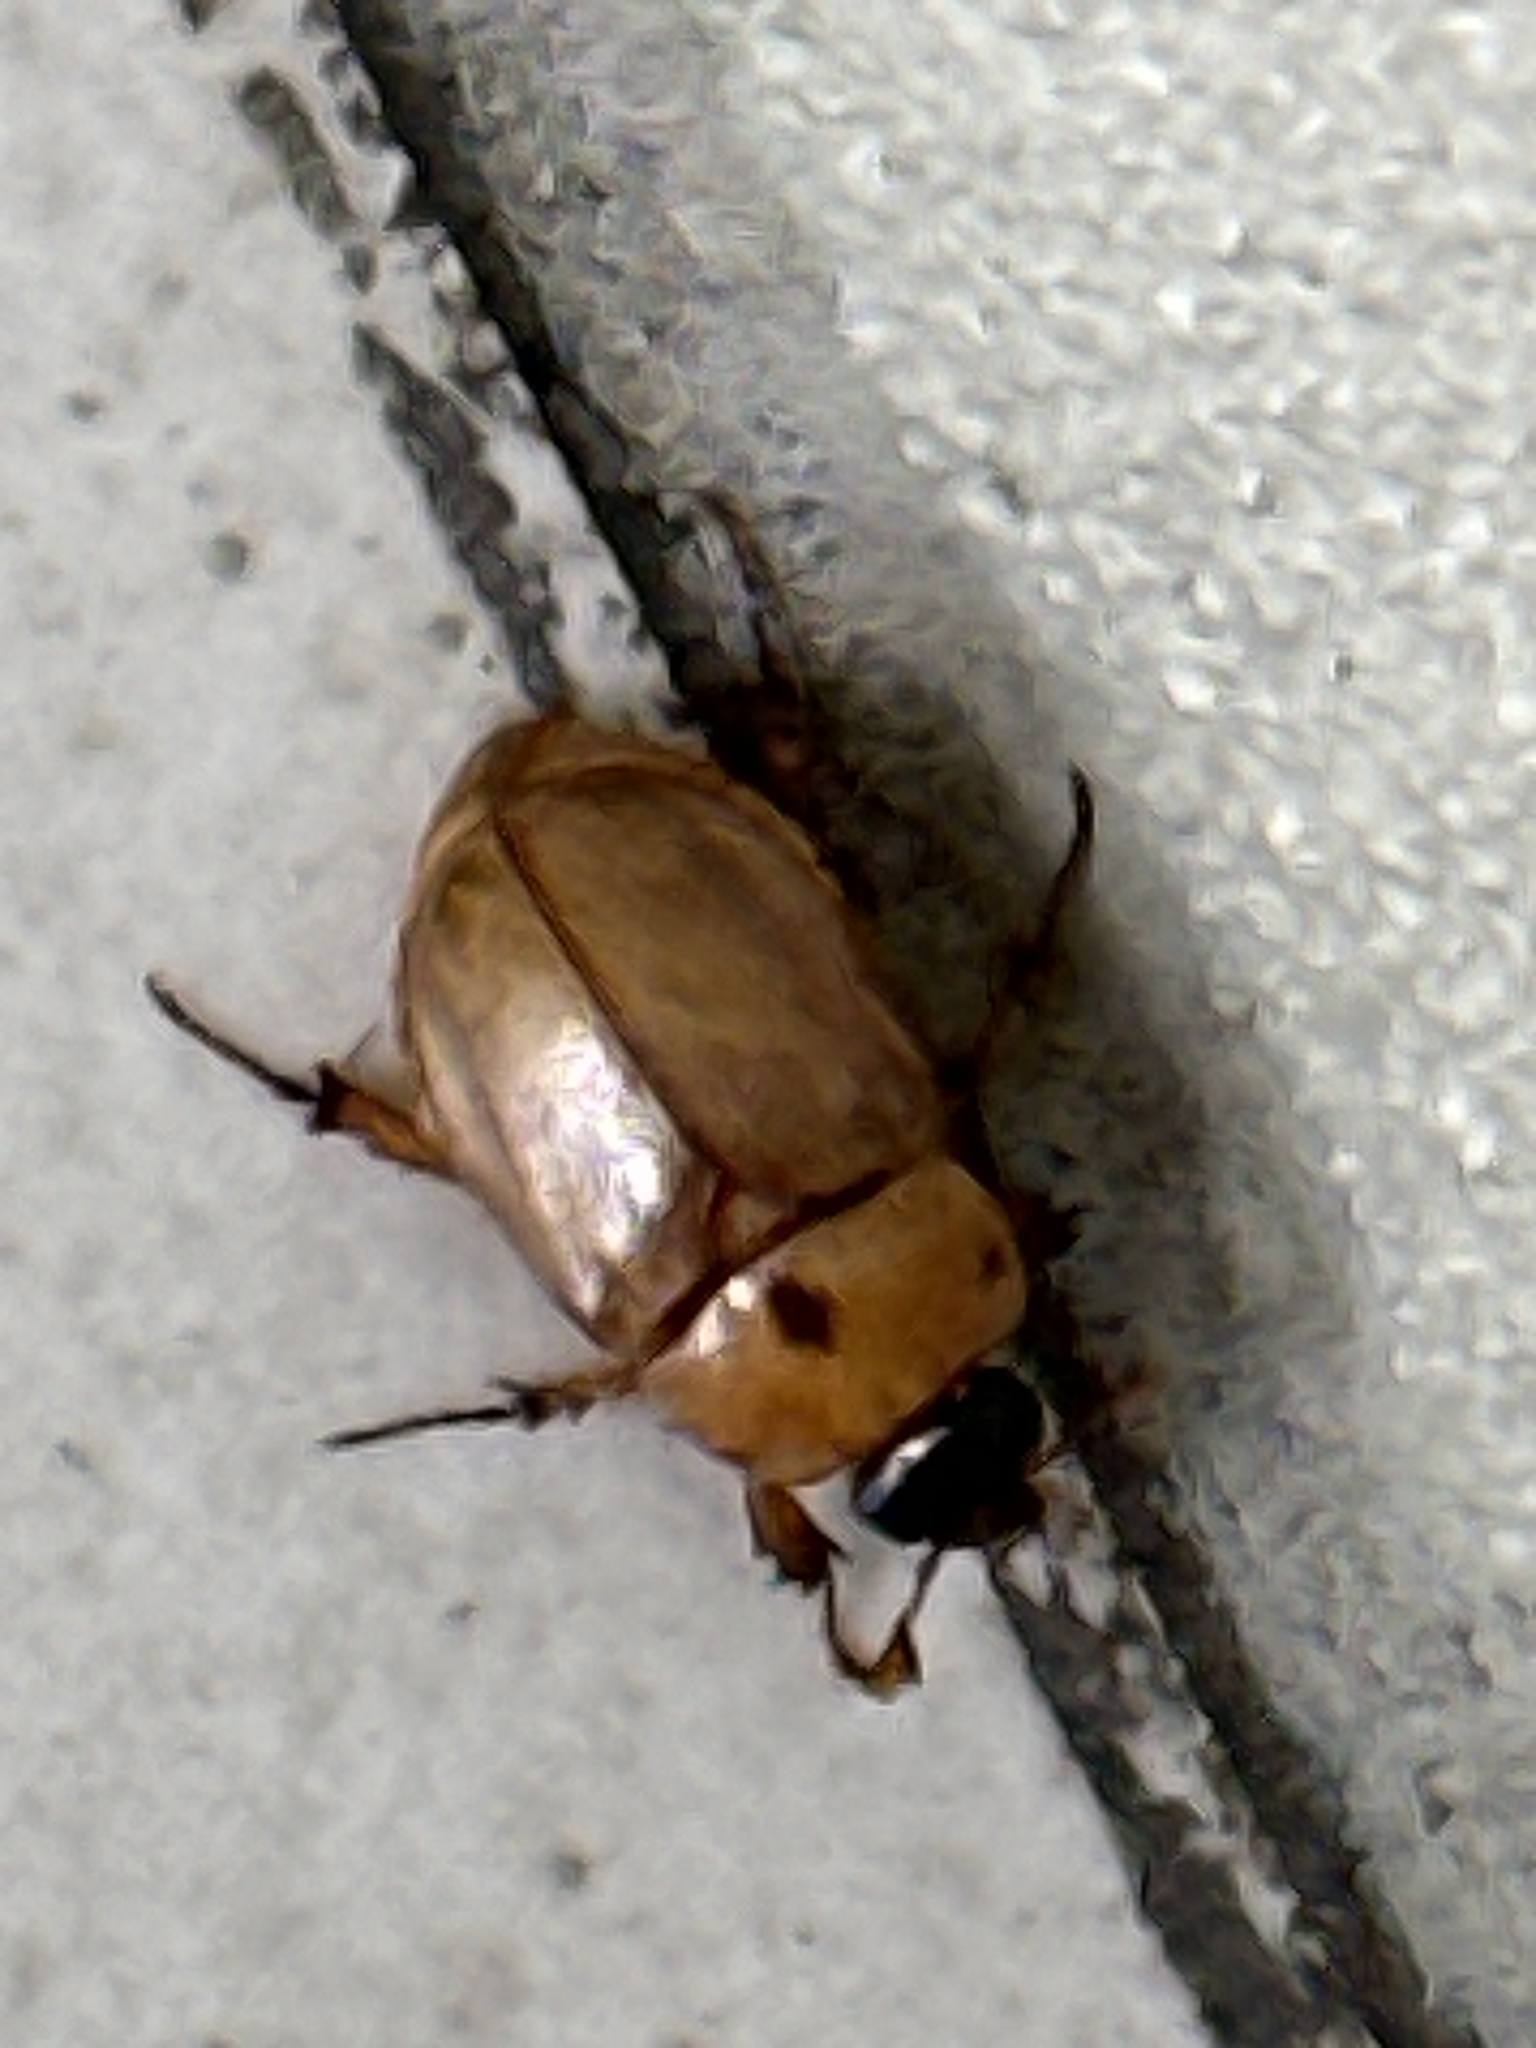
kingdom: Animalia
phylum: Arthropoda
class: Insecta
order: Coleoptera
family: Scarabaeidae
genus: Cyclocephala
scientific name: Cyclocephala signaticollis
